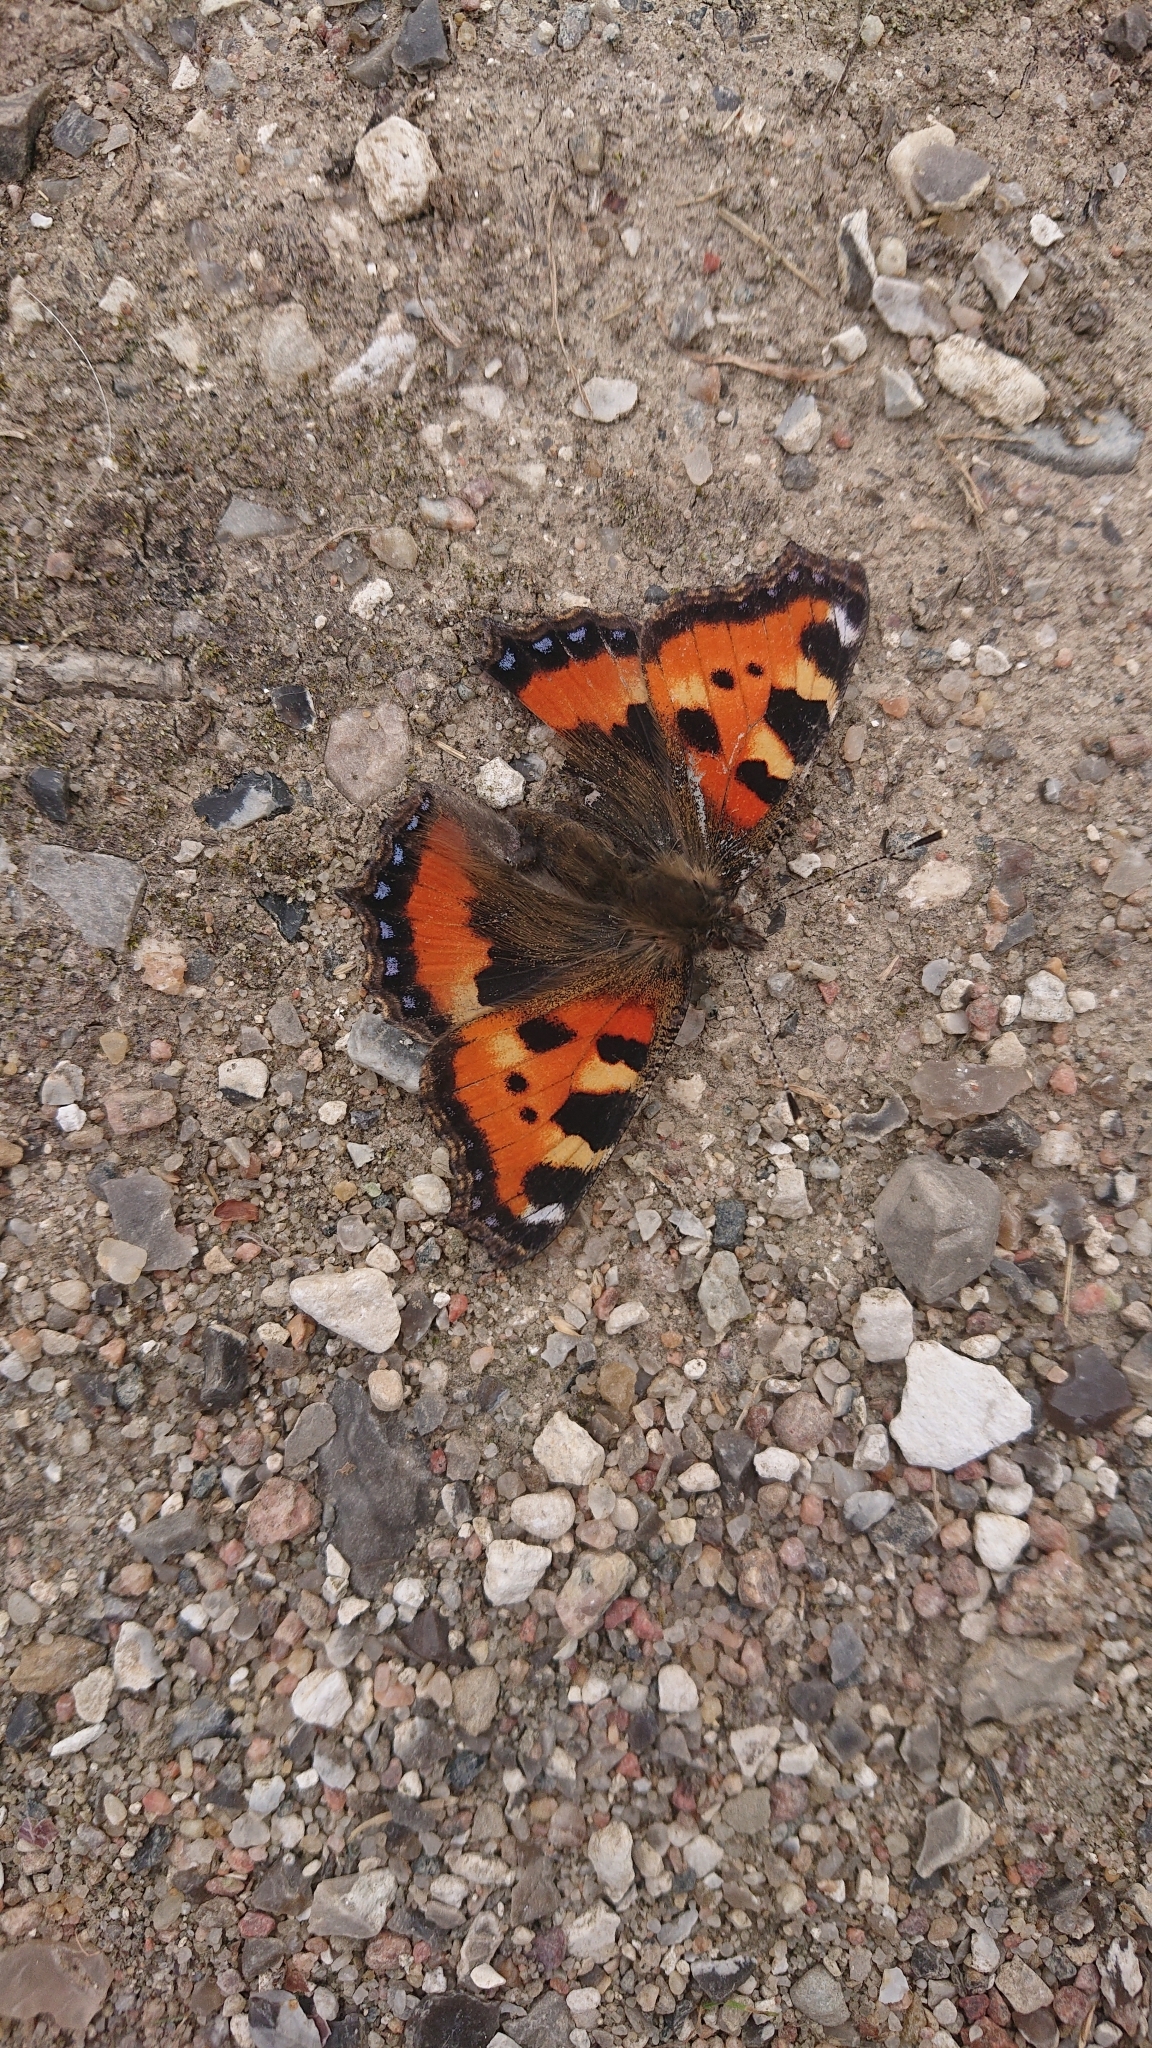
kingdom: Animalia
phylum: Arthropoda
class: Insecta
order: Lepidoptera
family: Nymphalidae
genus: Aglais
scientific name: Aglais urticae
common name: Small tortoiseshell
